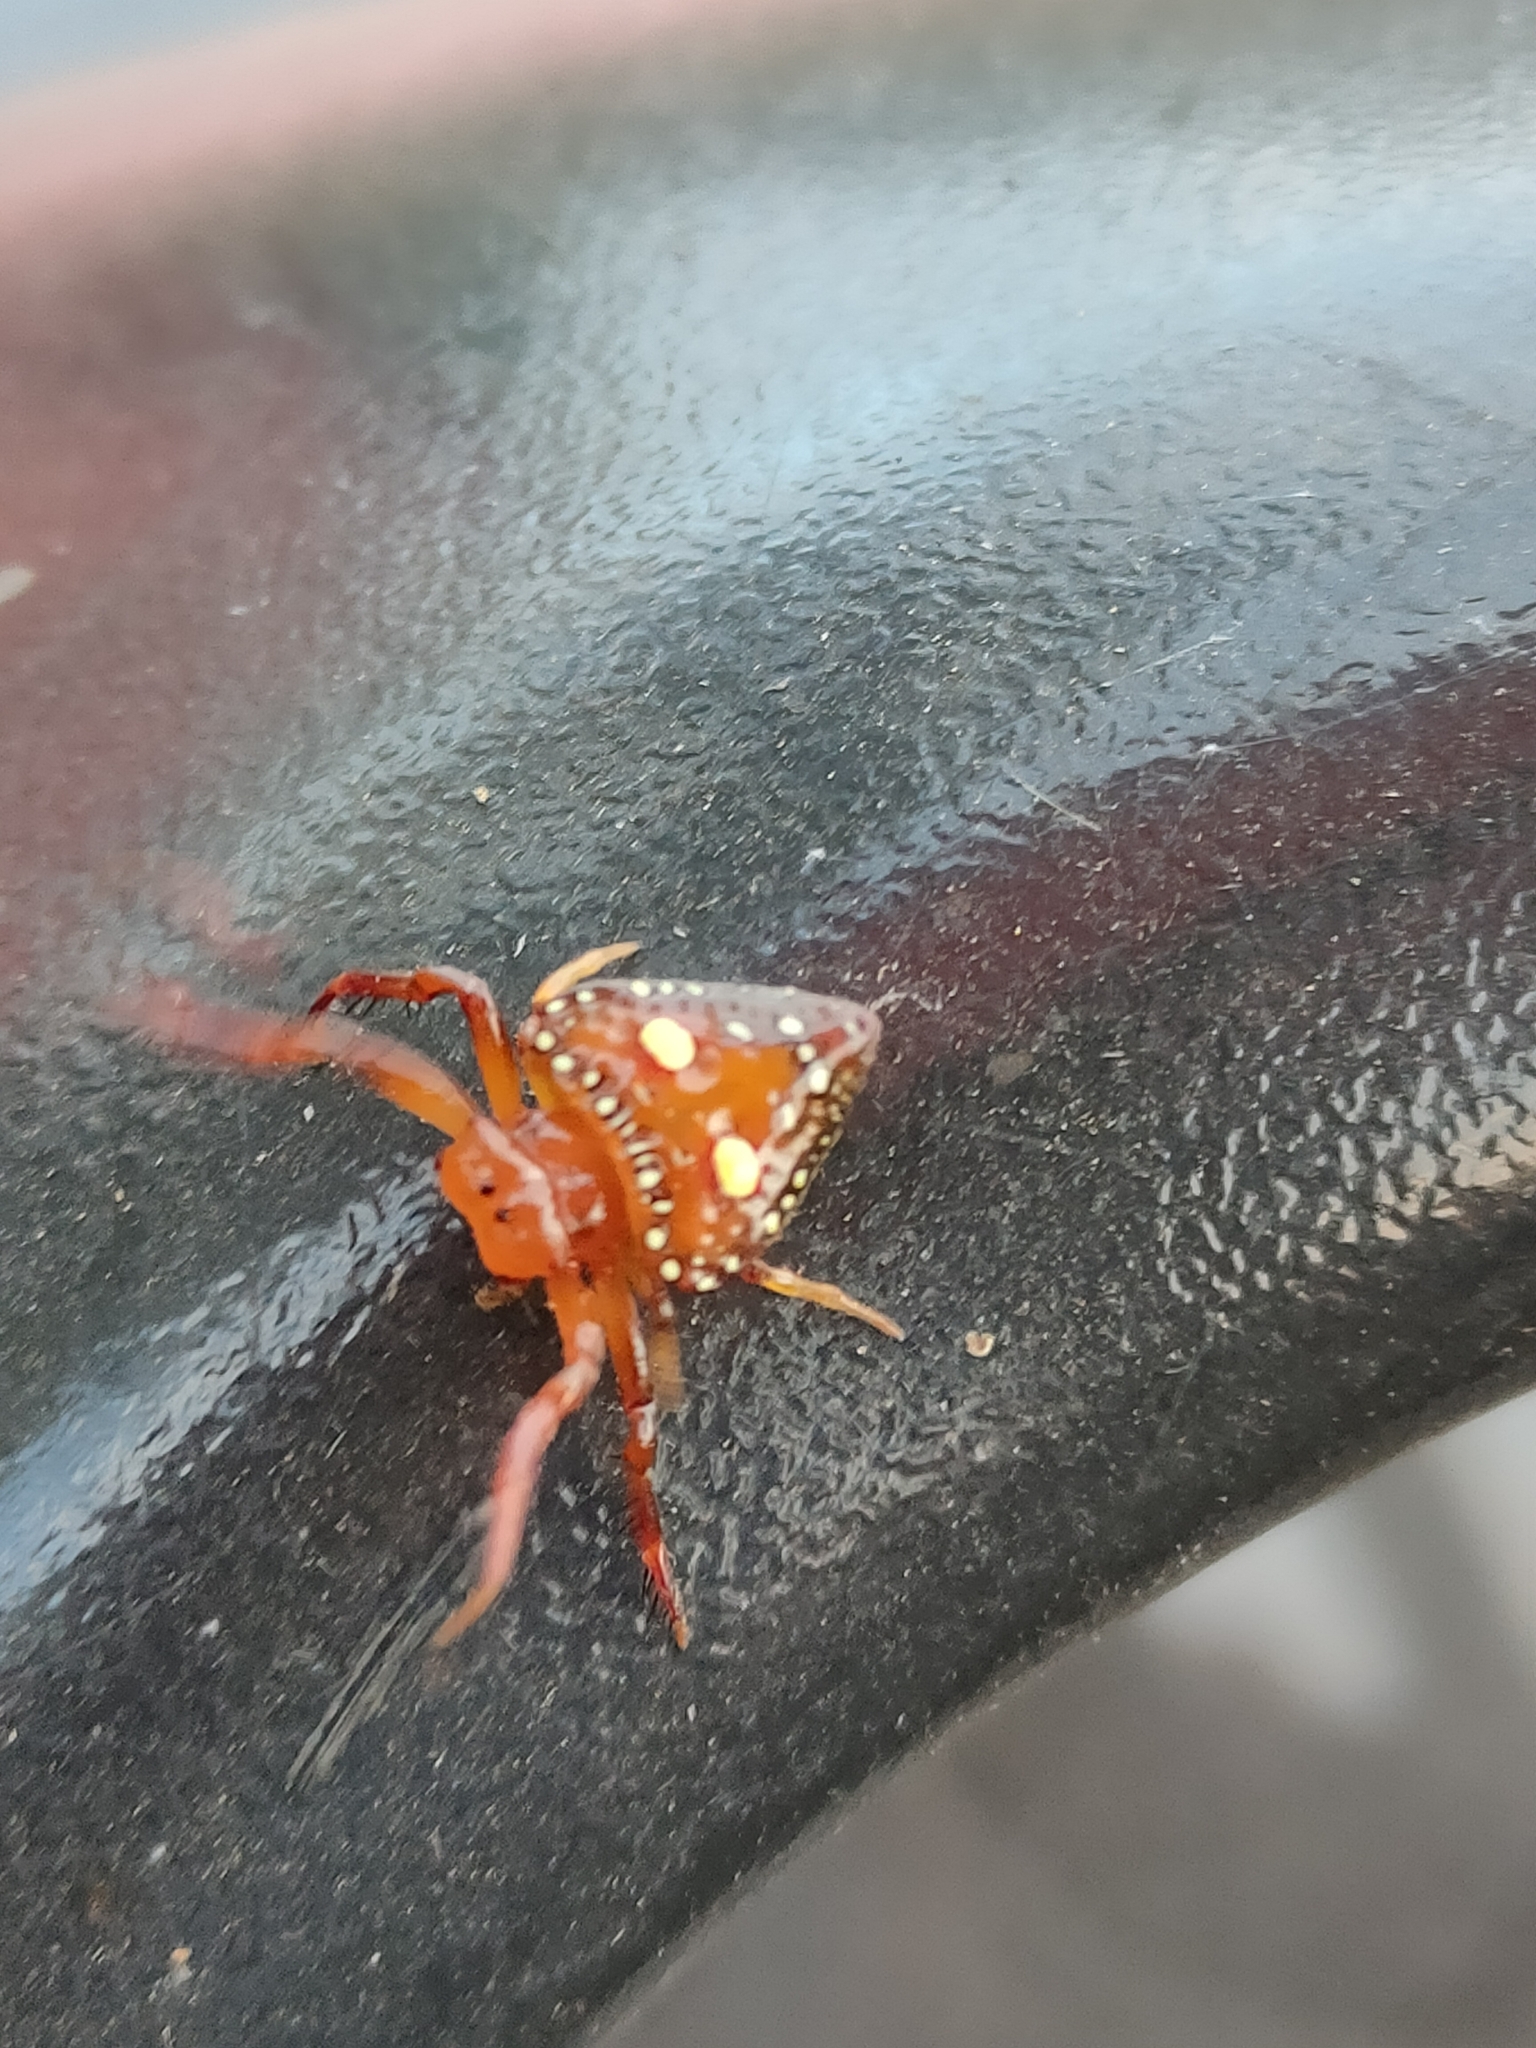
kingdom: Animalia
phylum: Arthropoda
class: Arachnida
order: Araneae
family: Arkyidae
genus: Arkys
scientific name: Arkys lancearius
